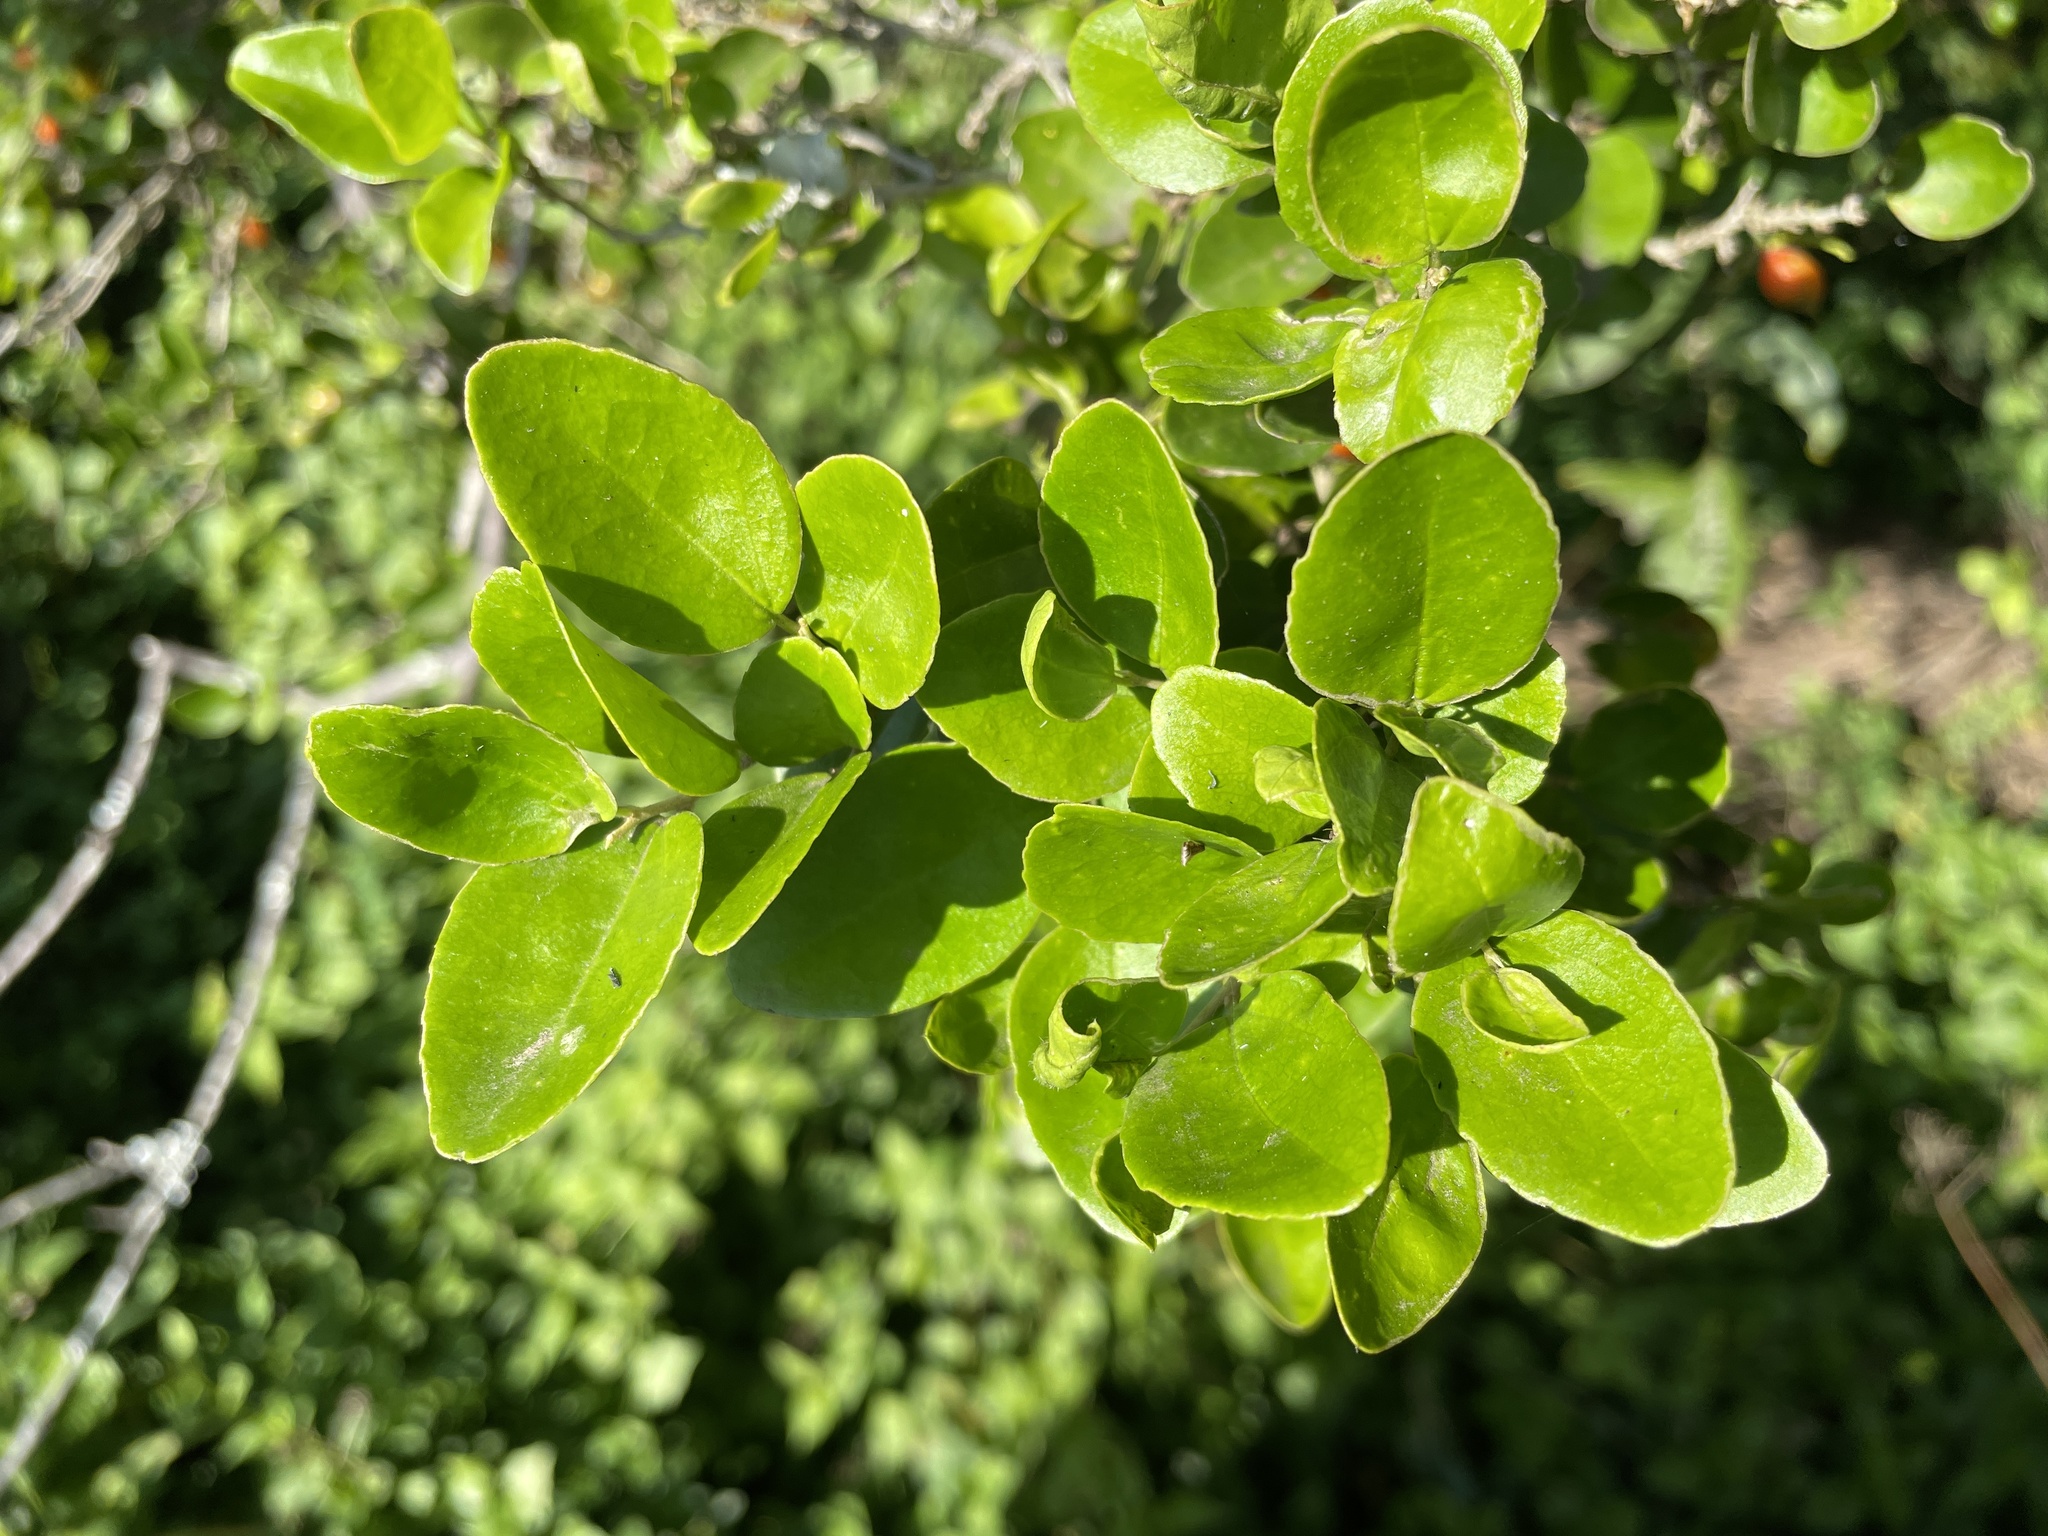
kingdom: Plantae
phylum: Tracheophyta
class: Magnoliopsida
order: Malpighiales
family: Salicaceae
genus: Dovyalis
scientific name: Dovyalis rhamnoides
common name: Sourberry
